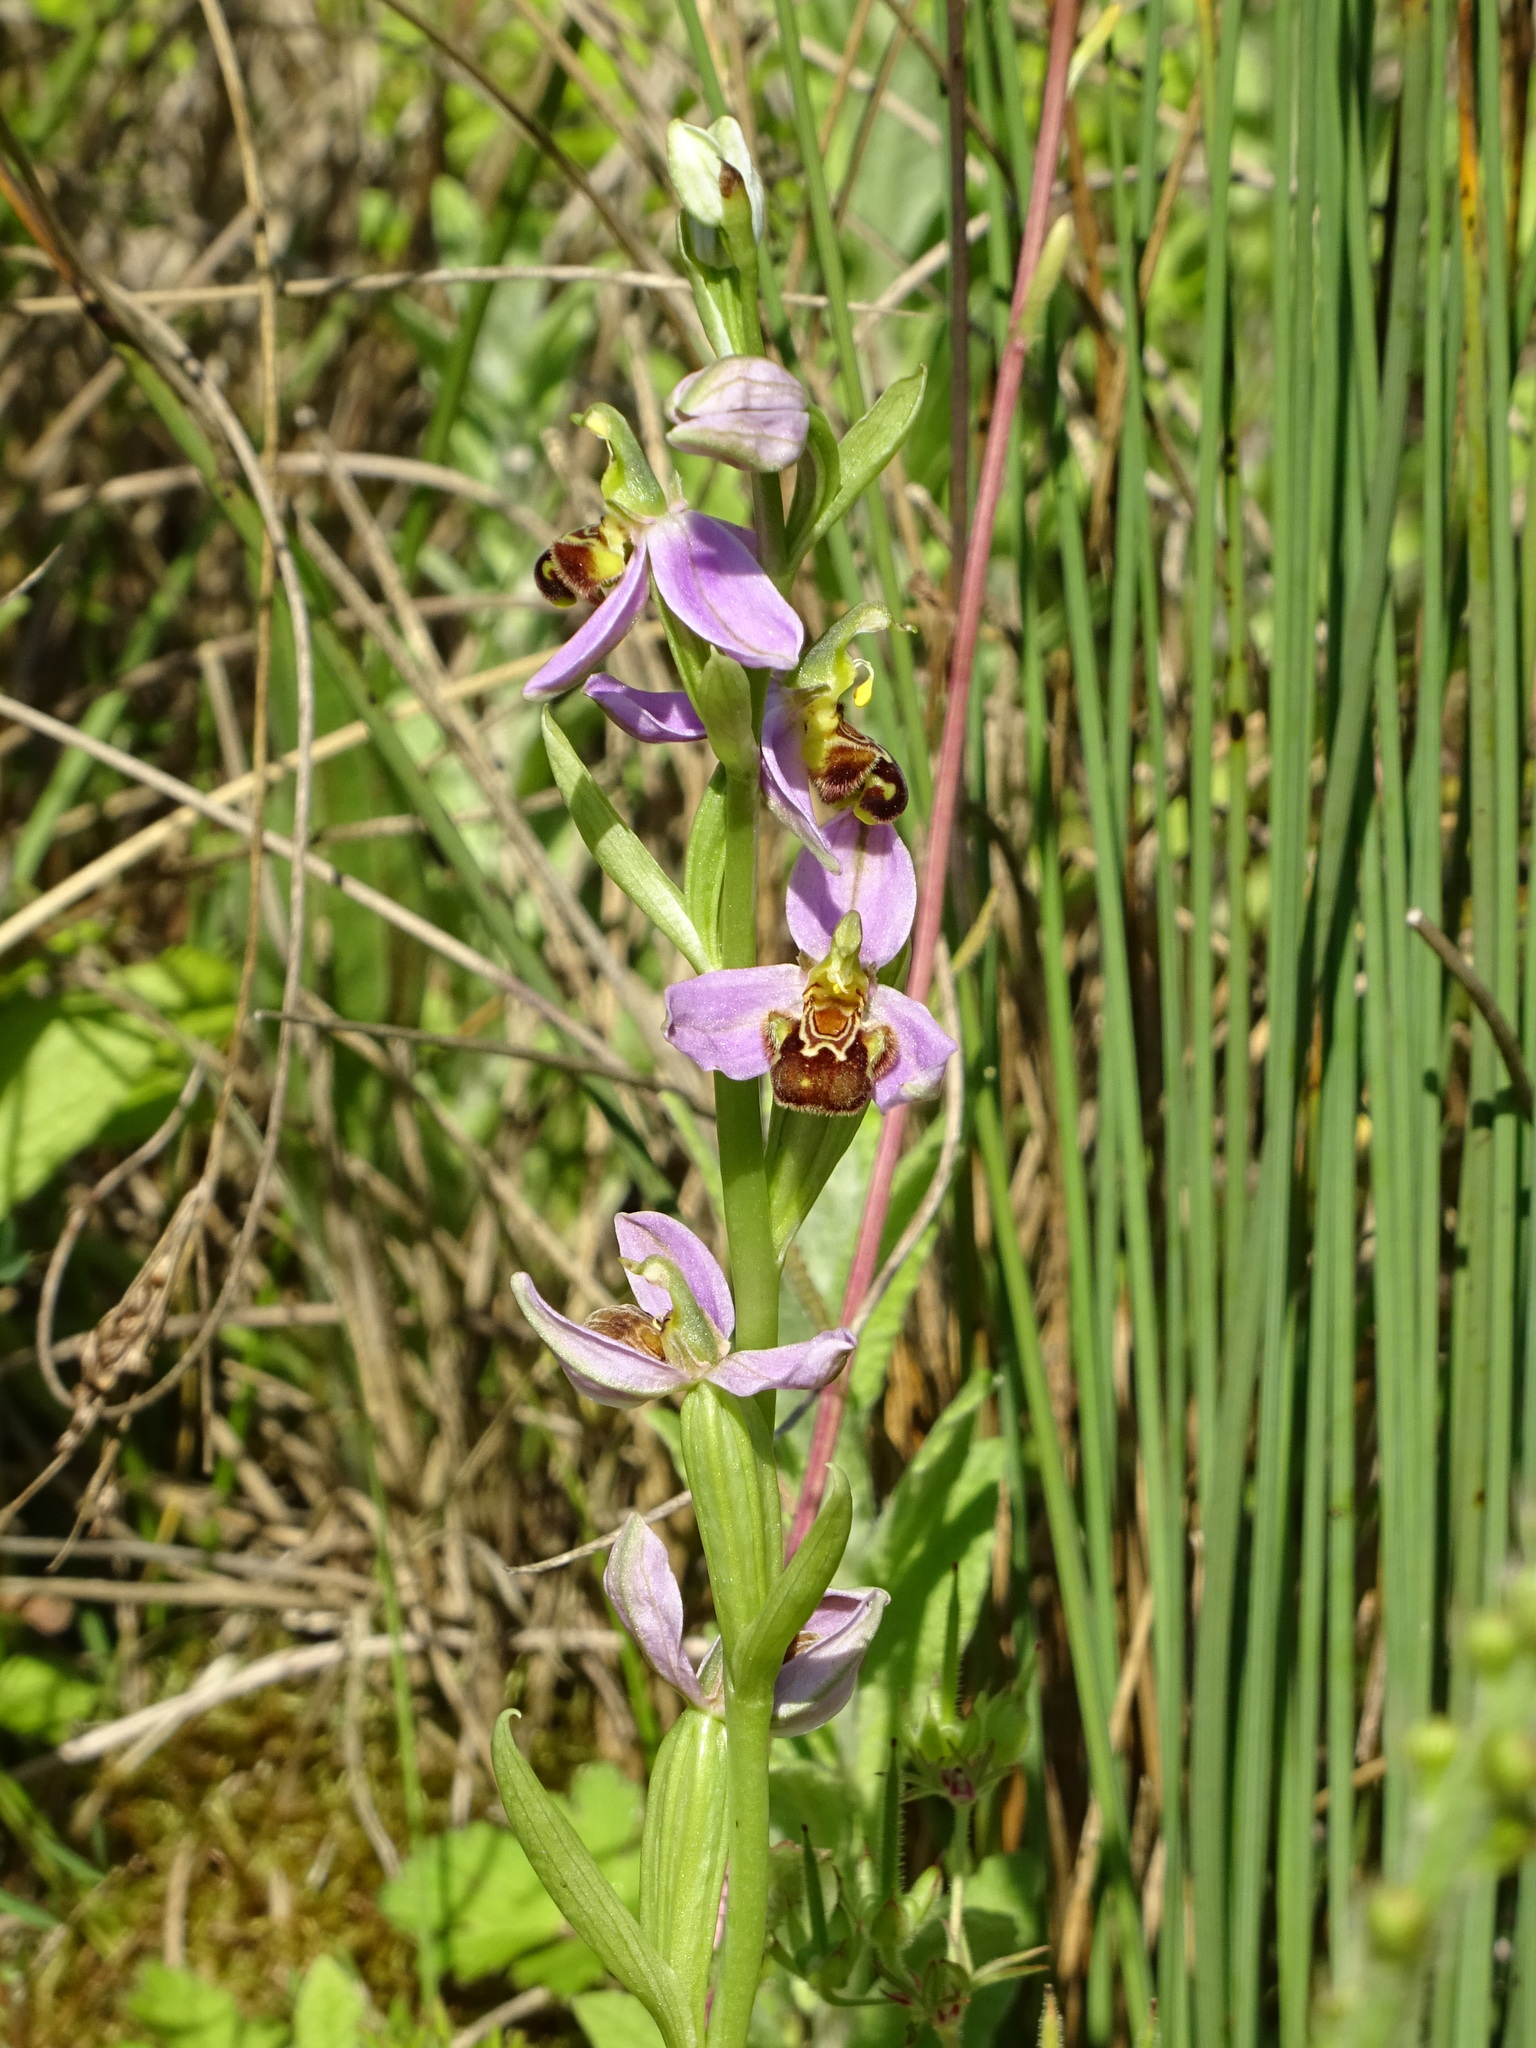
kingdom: Plantae
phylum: Tracheophyta
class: Liliopsida
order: Asparagales
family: Orchidaceae
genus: Ophrys
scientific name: Ophrys apifera
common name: Bee orchid
